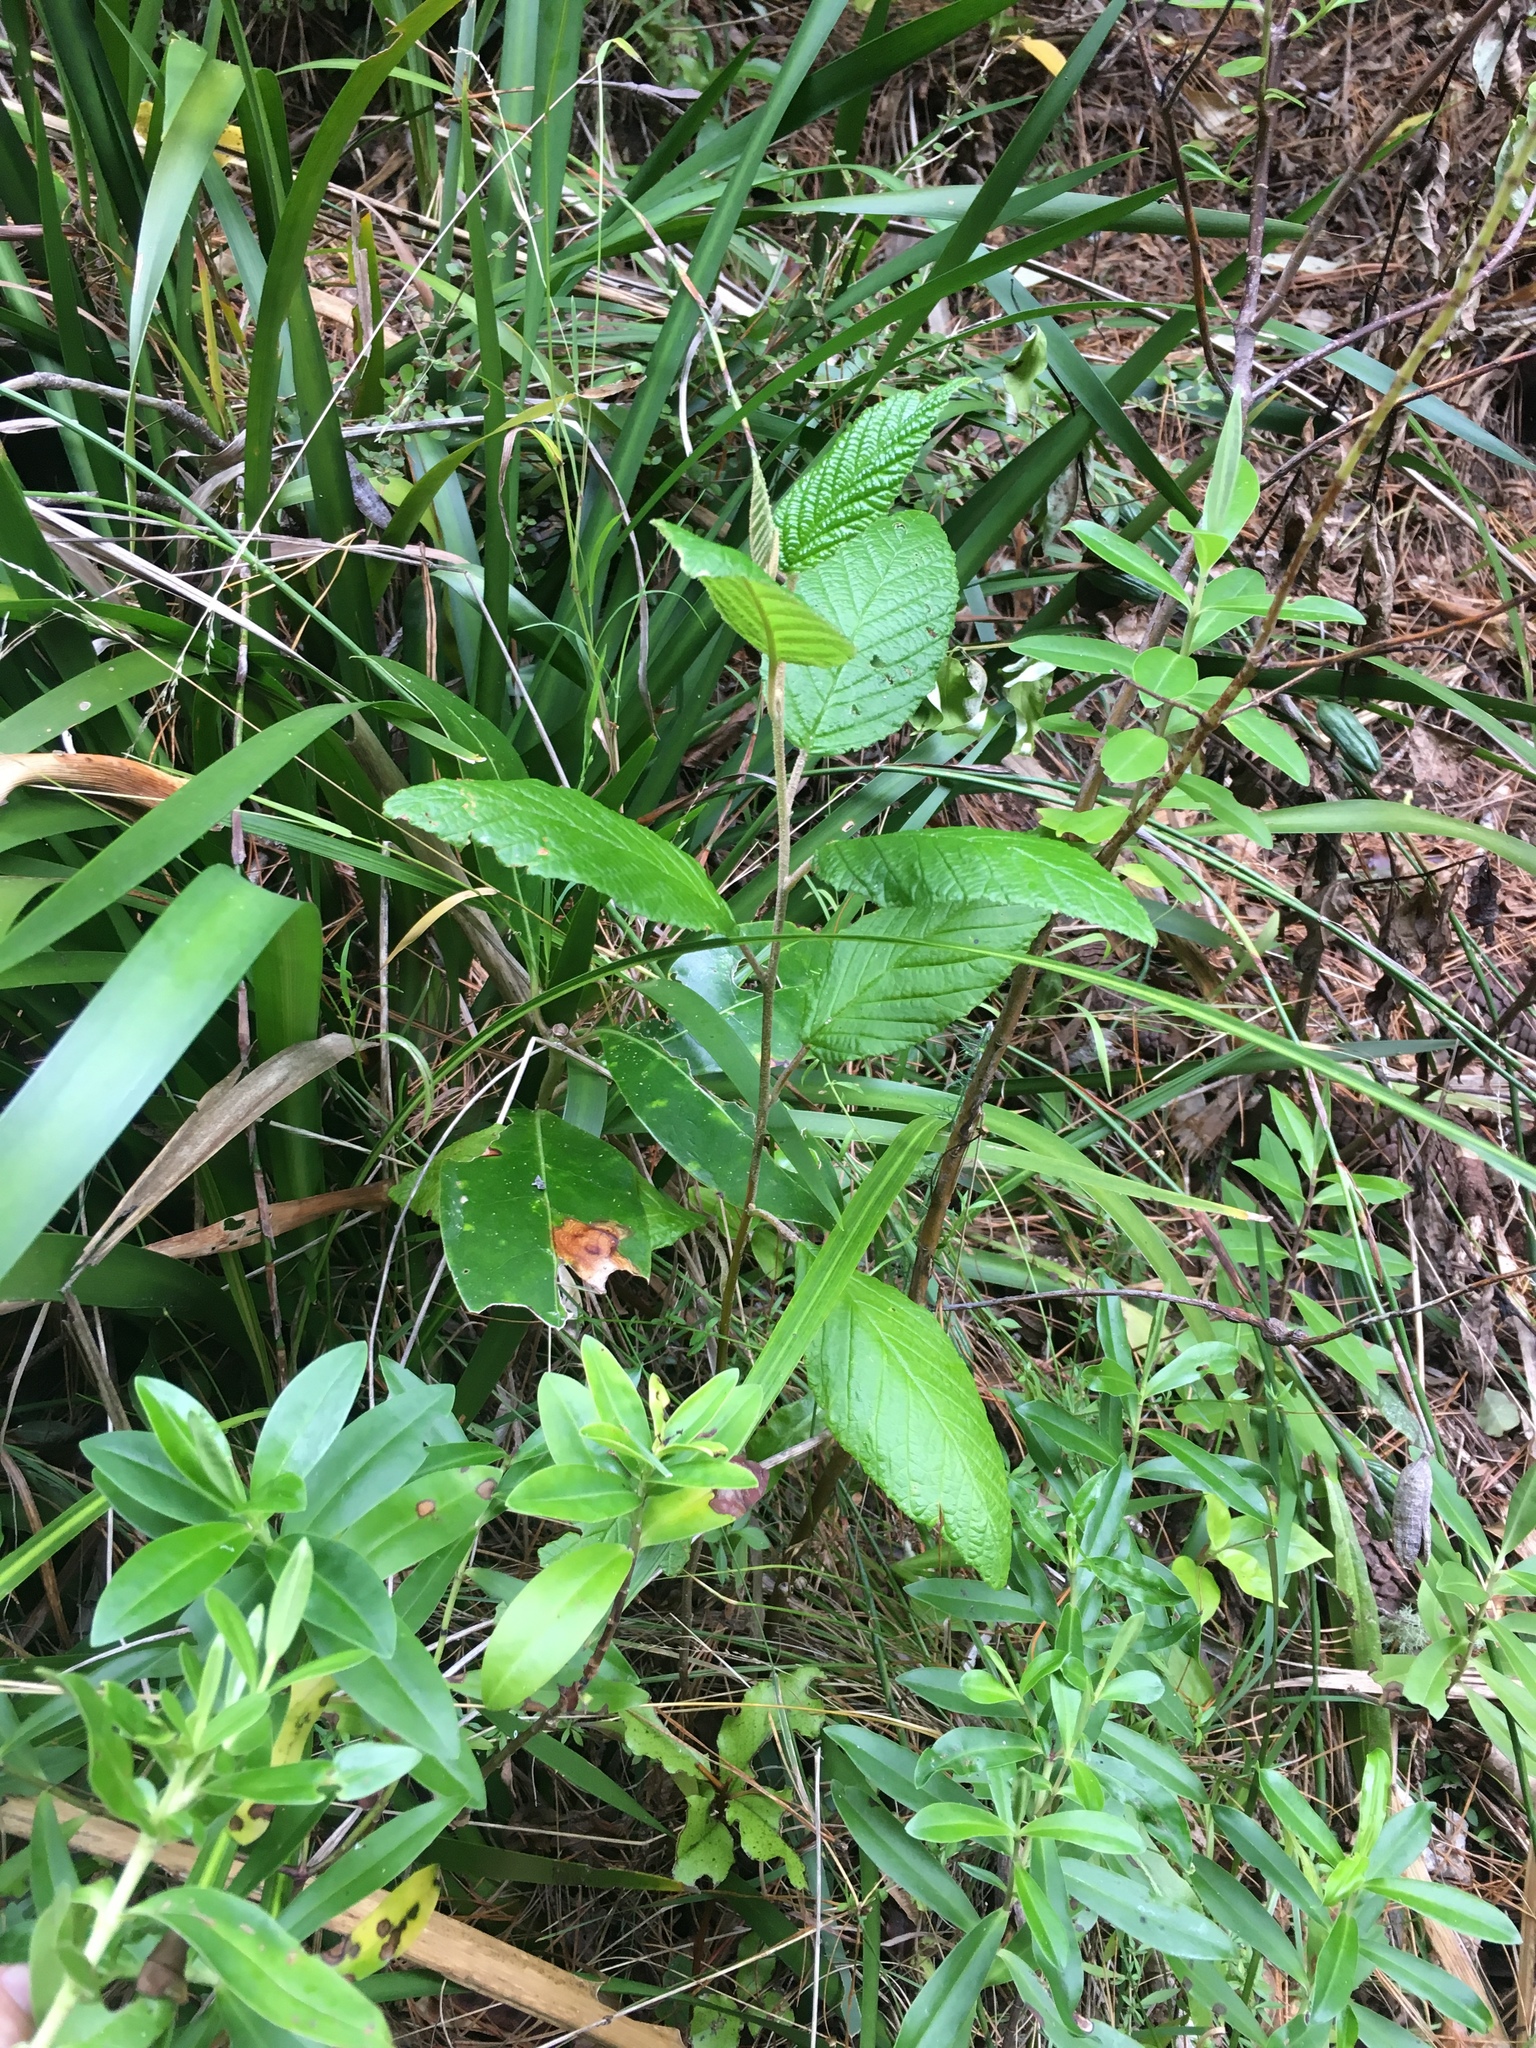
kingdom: Plantae
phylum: Tracheophyta
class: Magnoliopsida
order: Rosales
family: Rhamnaceae
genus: Pomaderris
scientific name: Pomaderris aspera
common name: Hazel pomaderris
